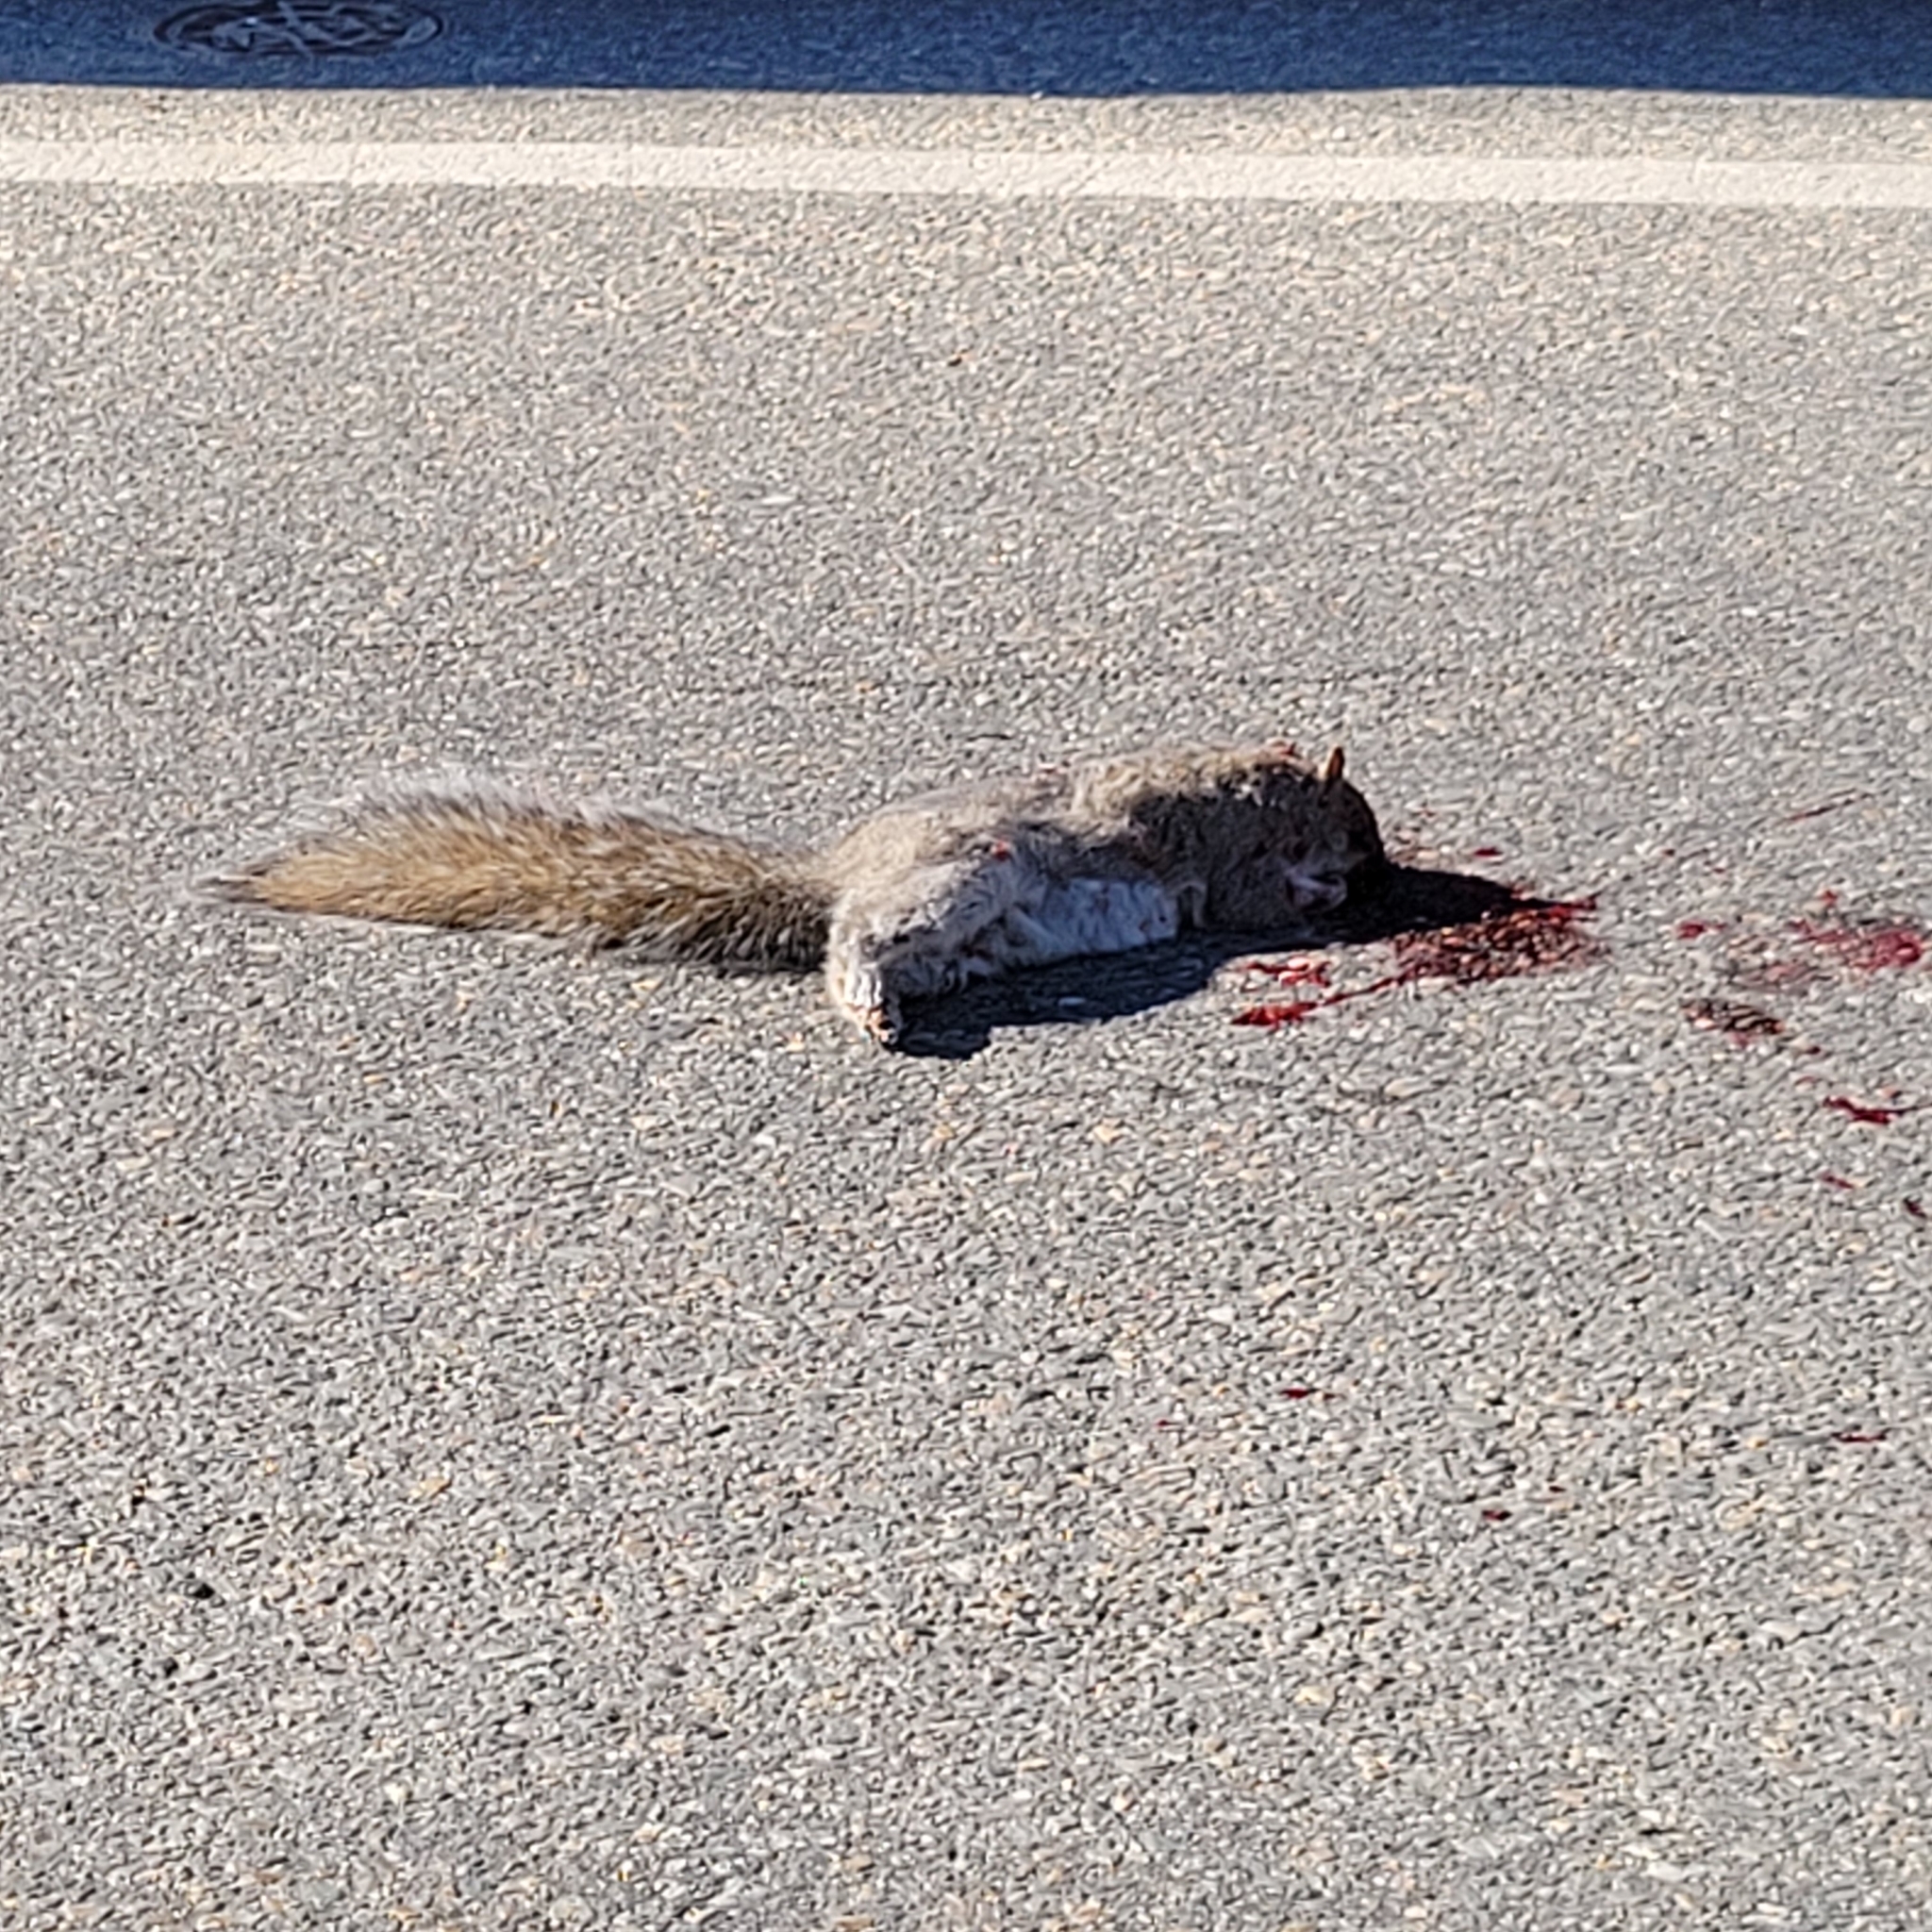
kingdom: Animalia
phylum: Chordata
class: Mammalia
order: Rodentia
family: Sciuridae
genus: Sciurus
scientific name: Sciurus carolinensis
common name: Eastern gray squirrel
